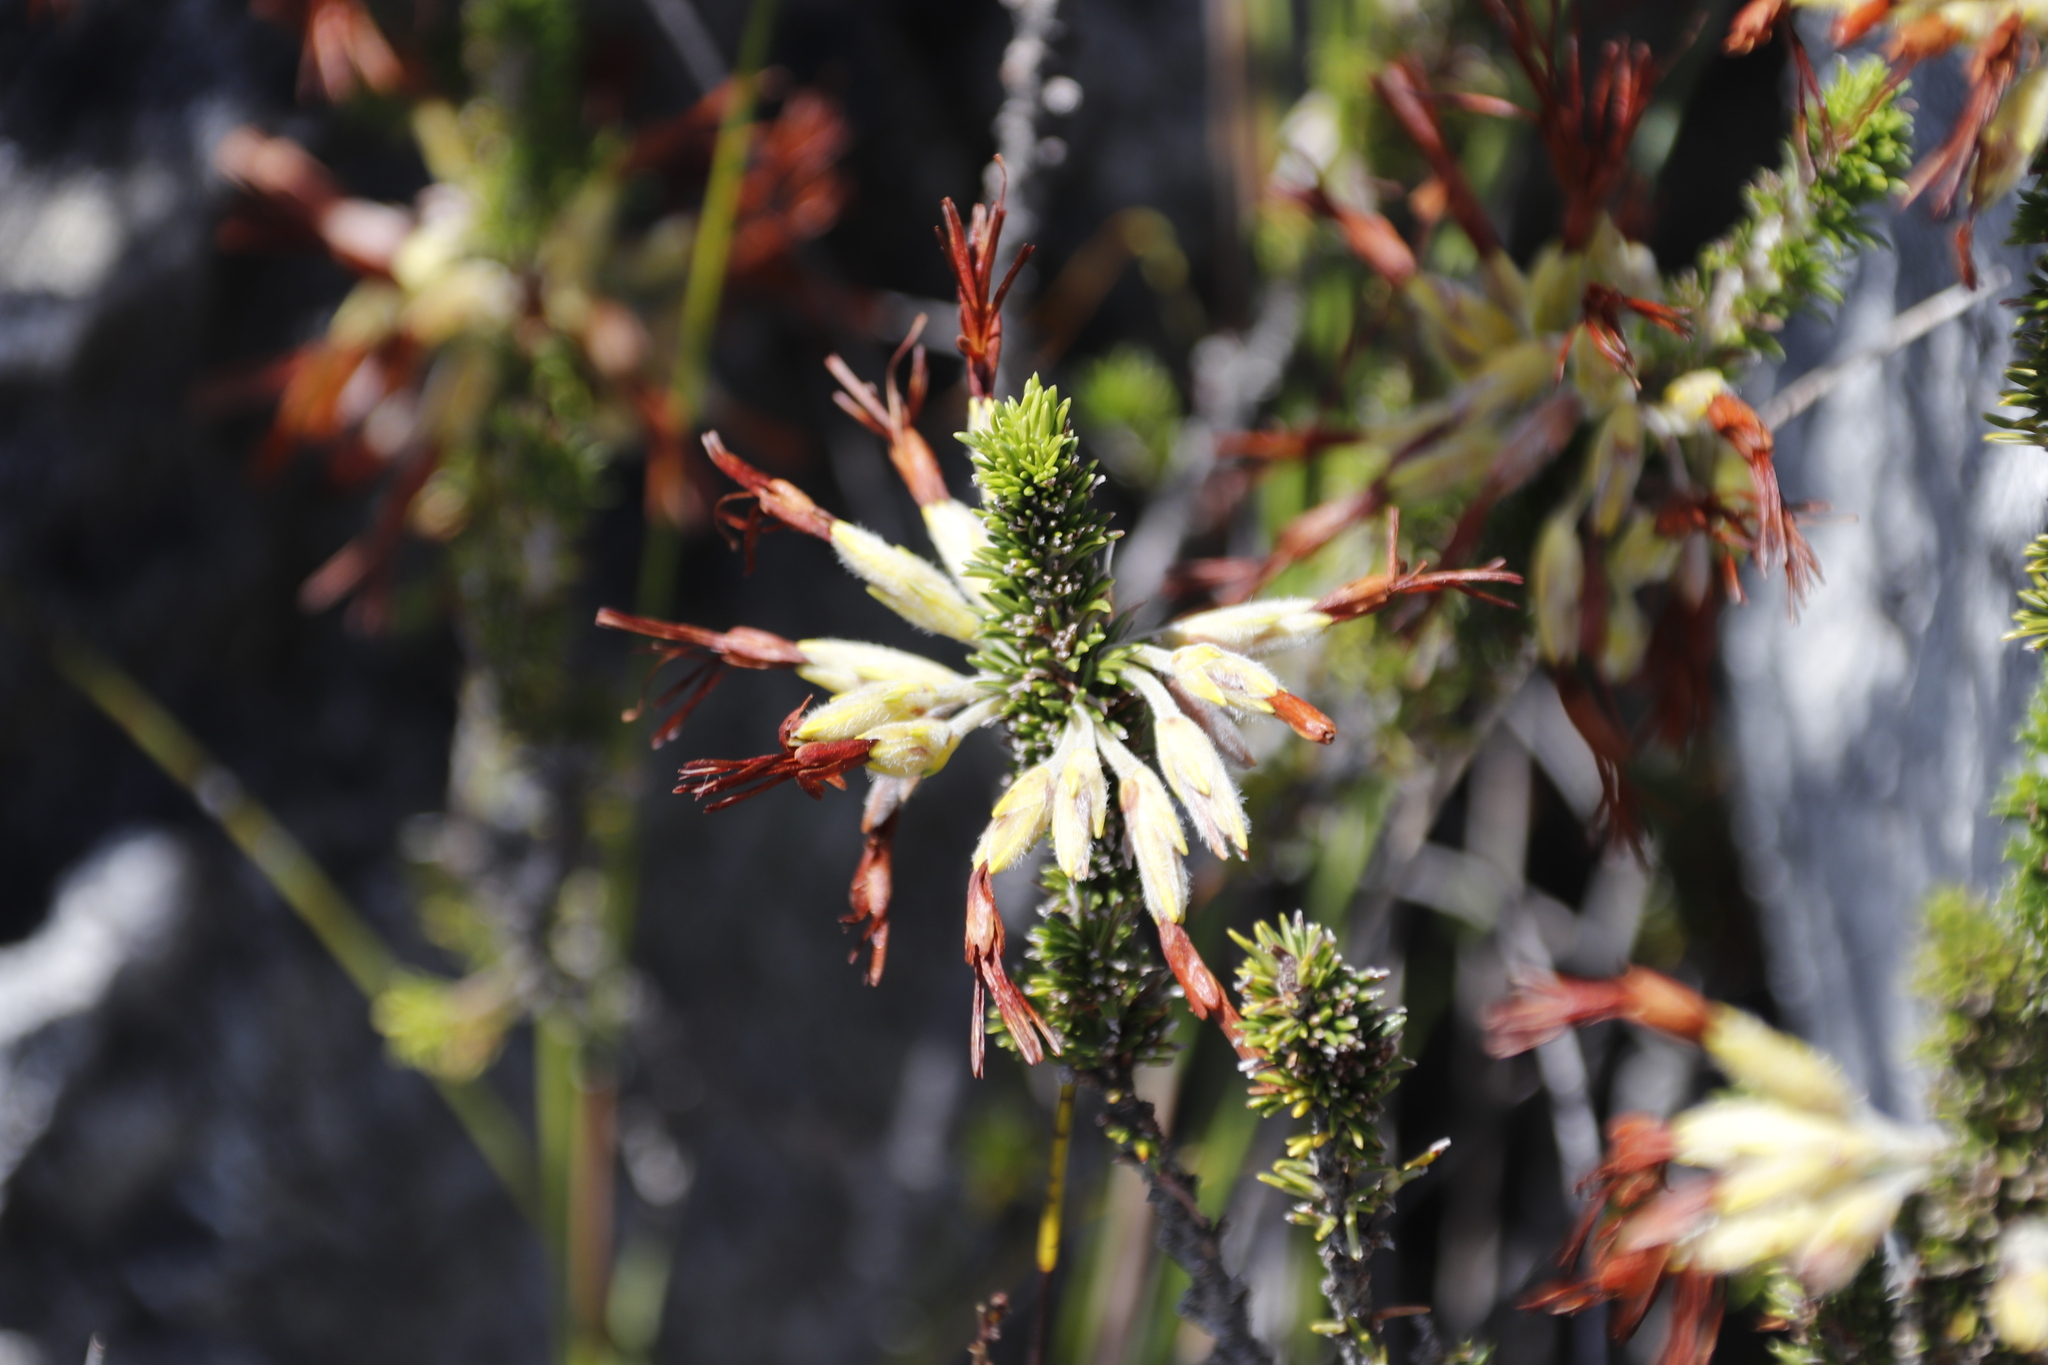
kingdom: Plantae
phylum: Tracheophyta
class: Magnoliopsida
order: Ericales
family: Ericaceae
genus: Erica
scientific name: Erica coccinea
